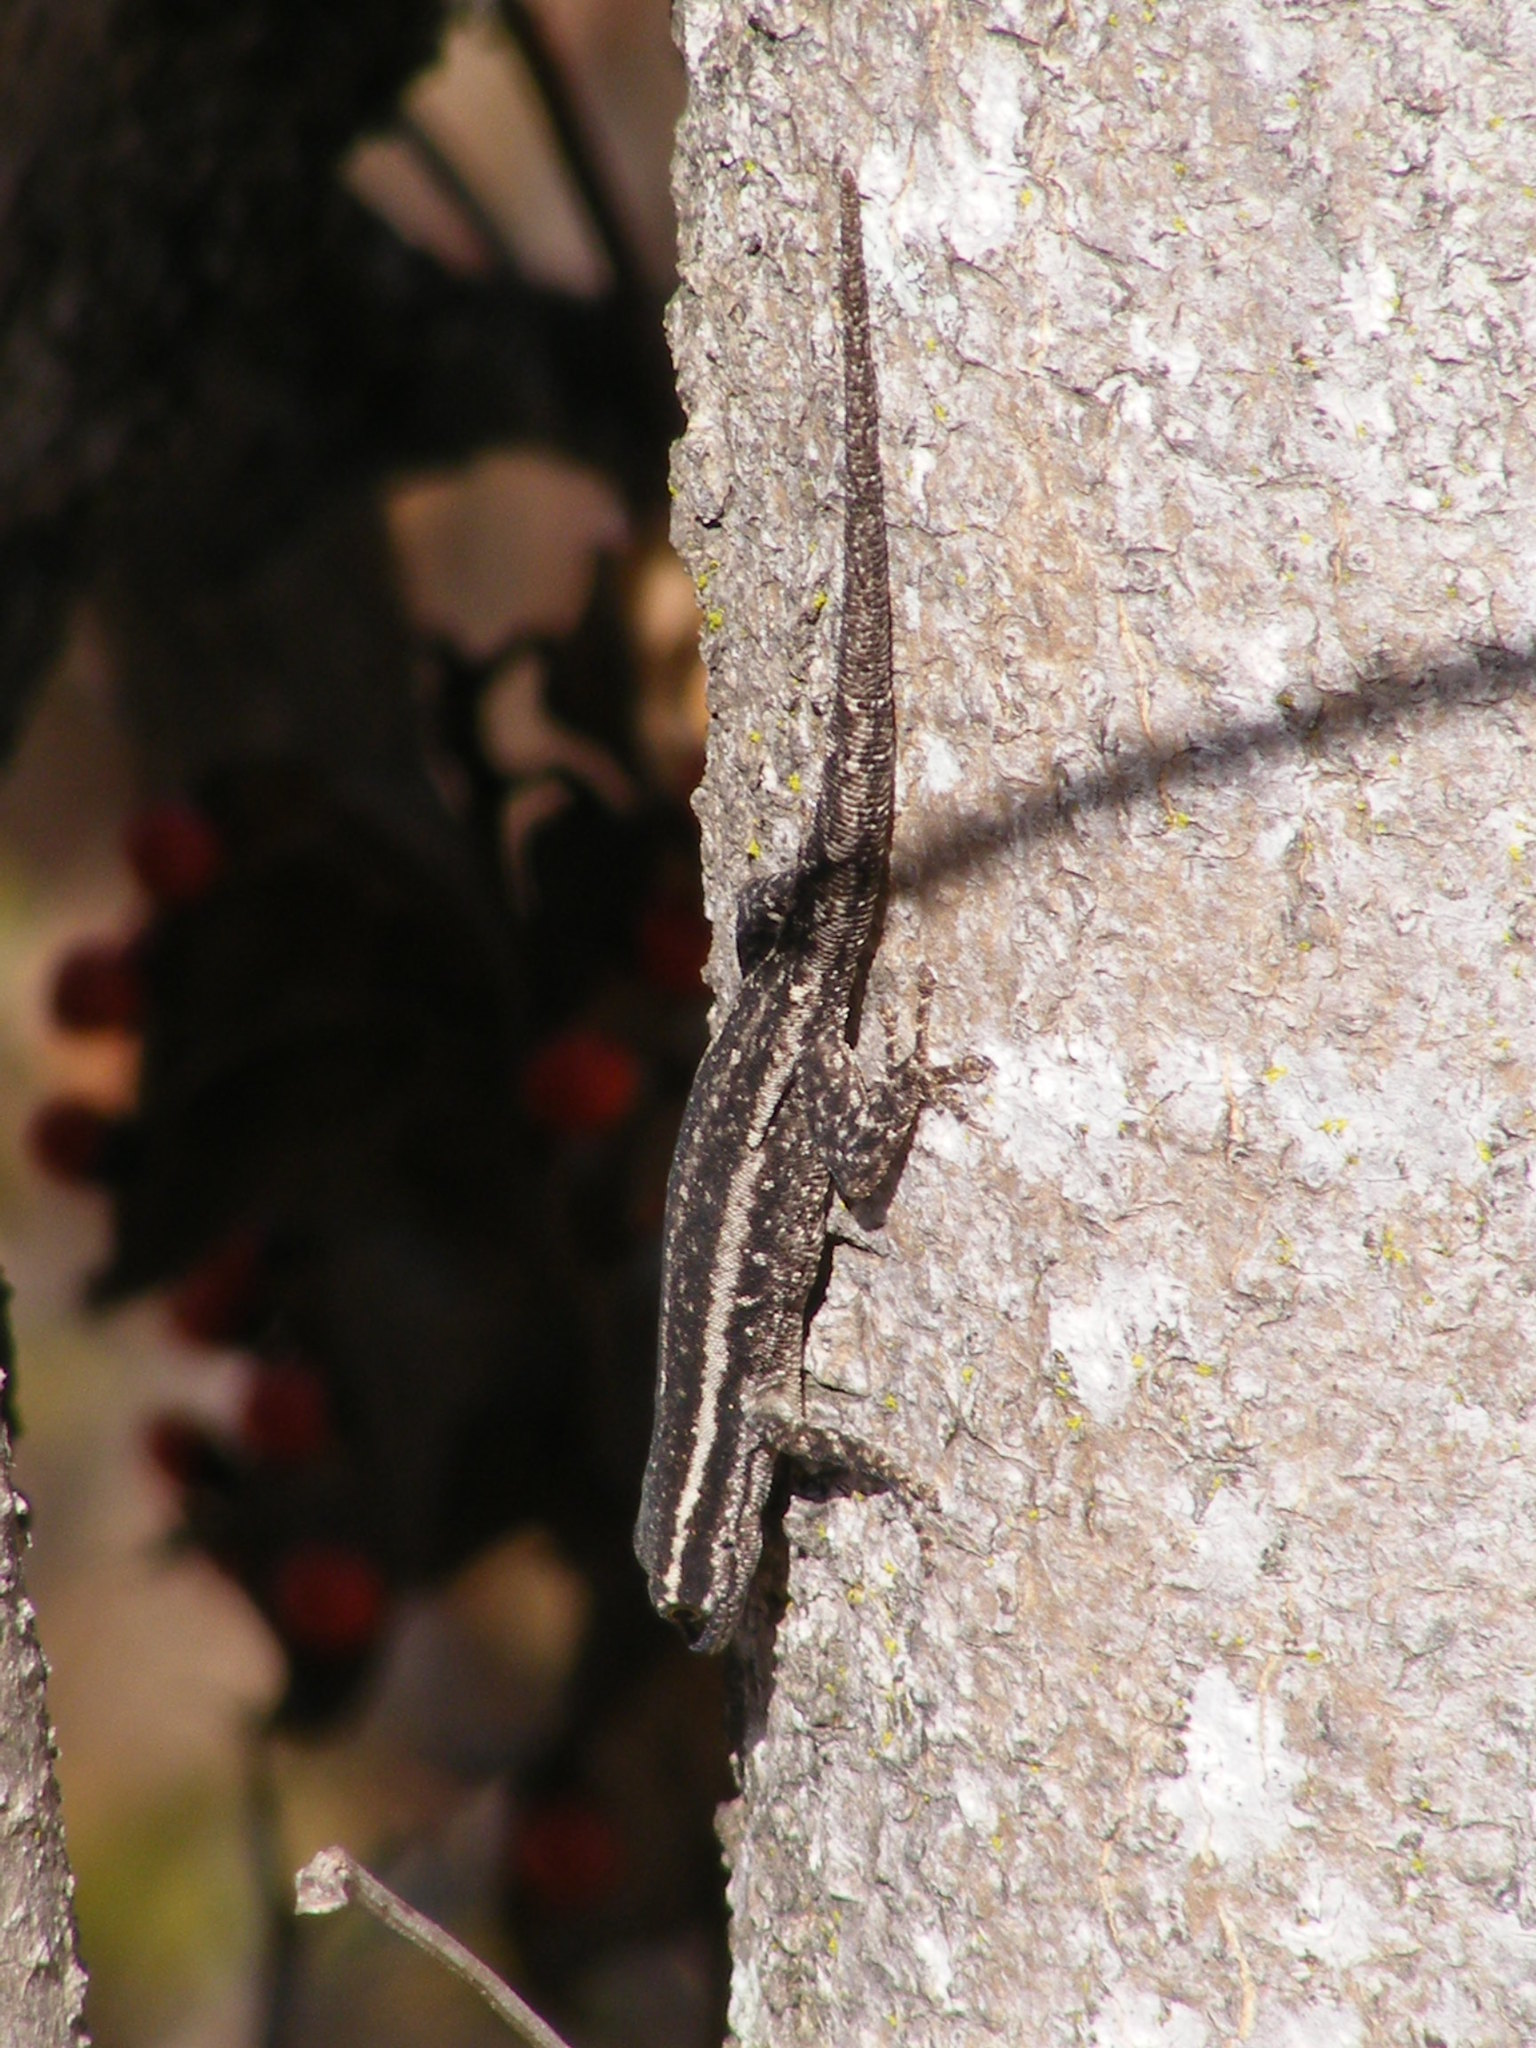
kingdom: Animalia
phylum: Chordata
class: Squamata
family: Gekkonidae
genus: Lygodactylus
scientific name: Lygodactylus capensis
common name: Cape dwarf gecko
